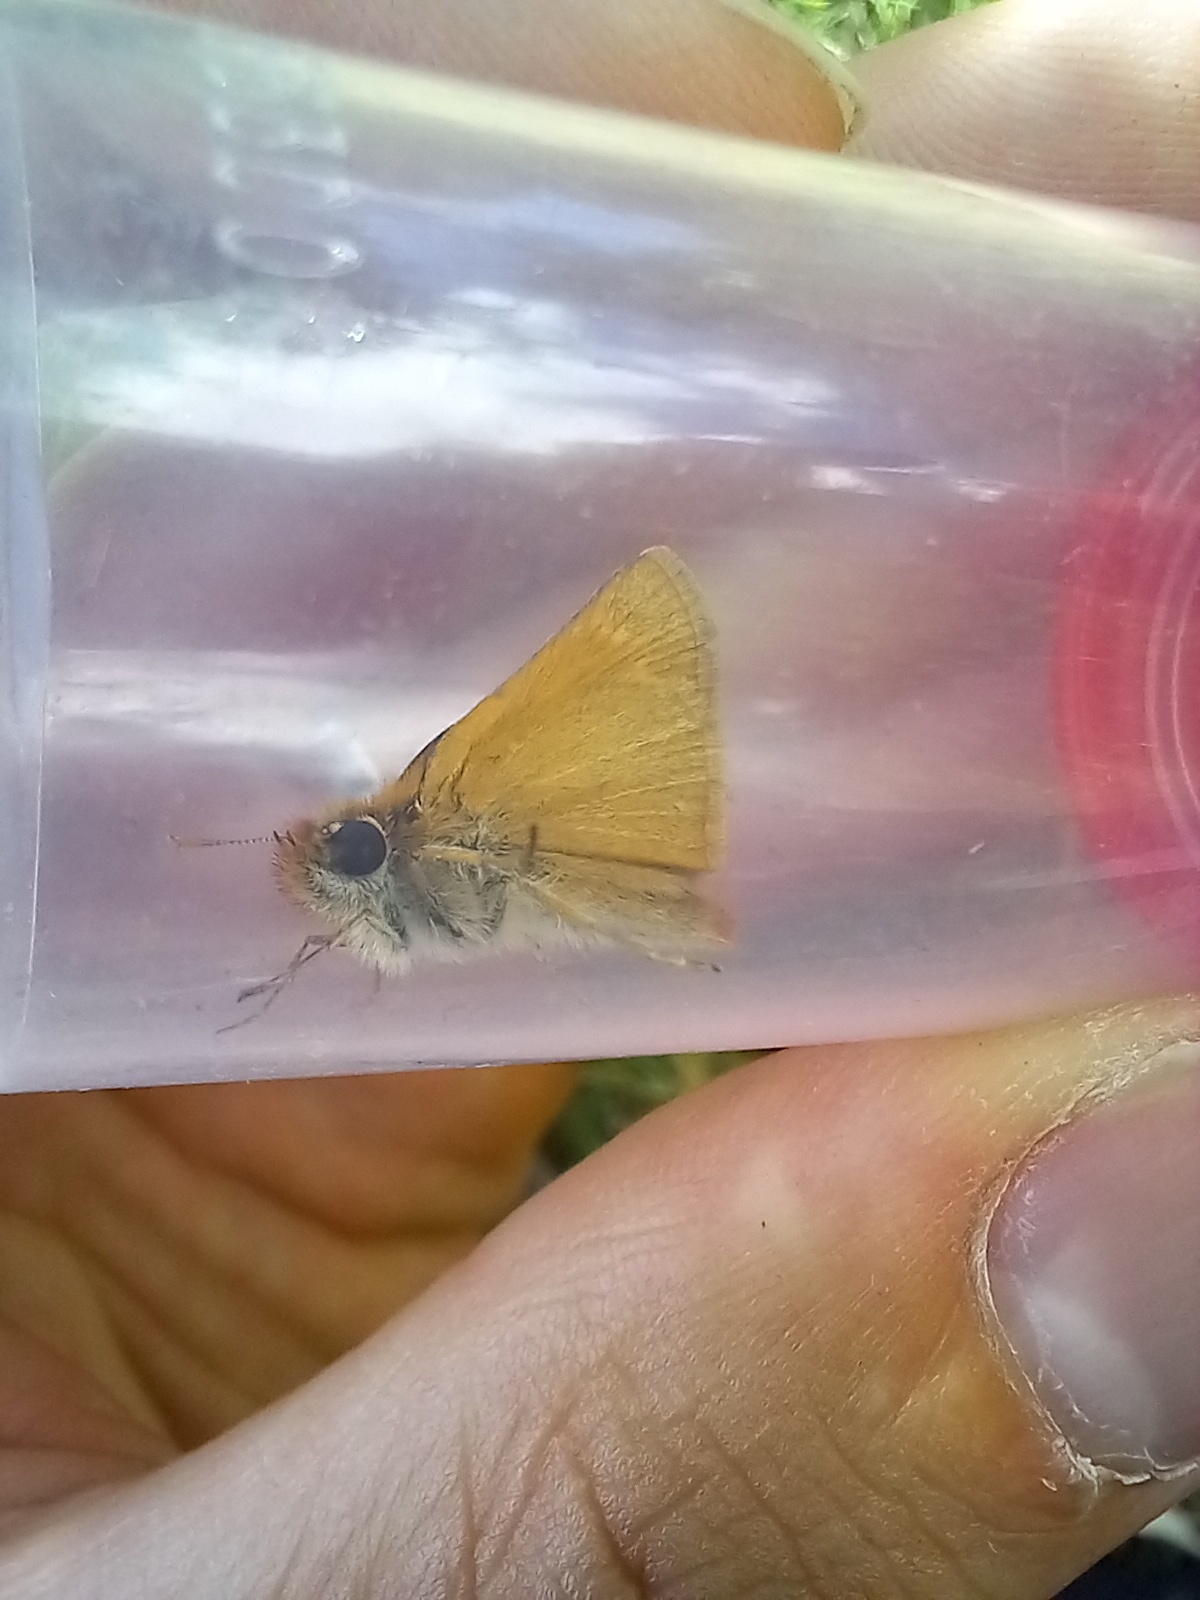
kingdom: Animalia
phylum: Arthropoda
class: Insecta
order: Lepidoptera
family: Hesperiidae
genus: Thymelicus
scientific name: Thymelicus acteon
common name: Lulworth skipper
